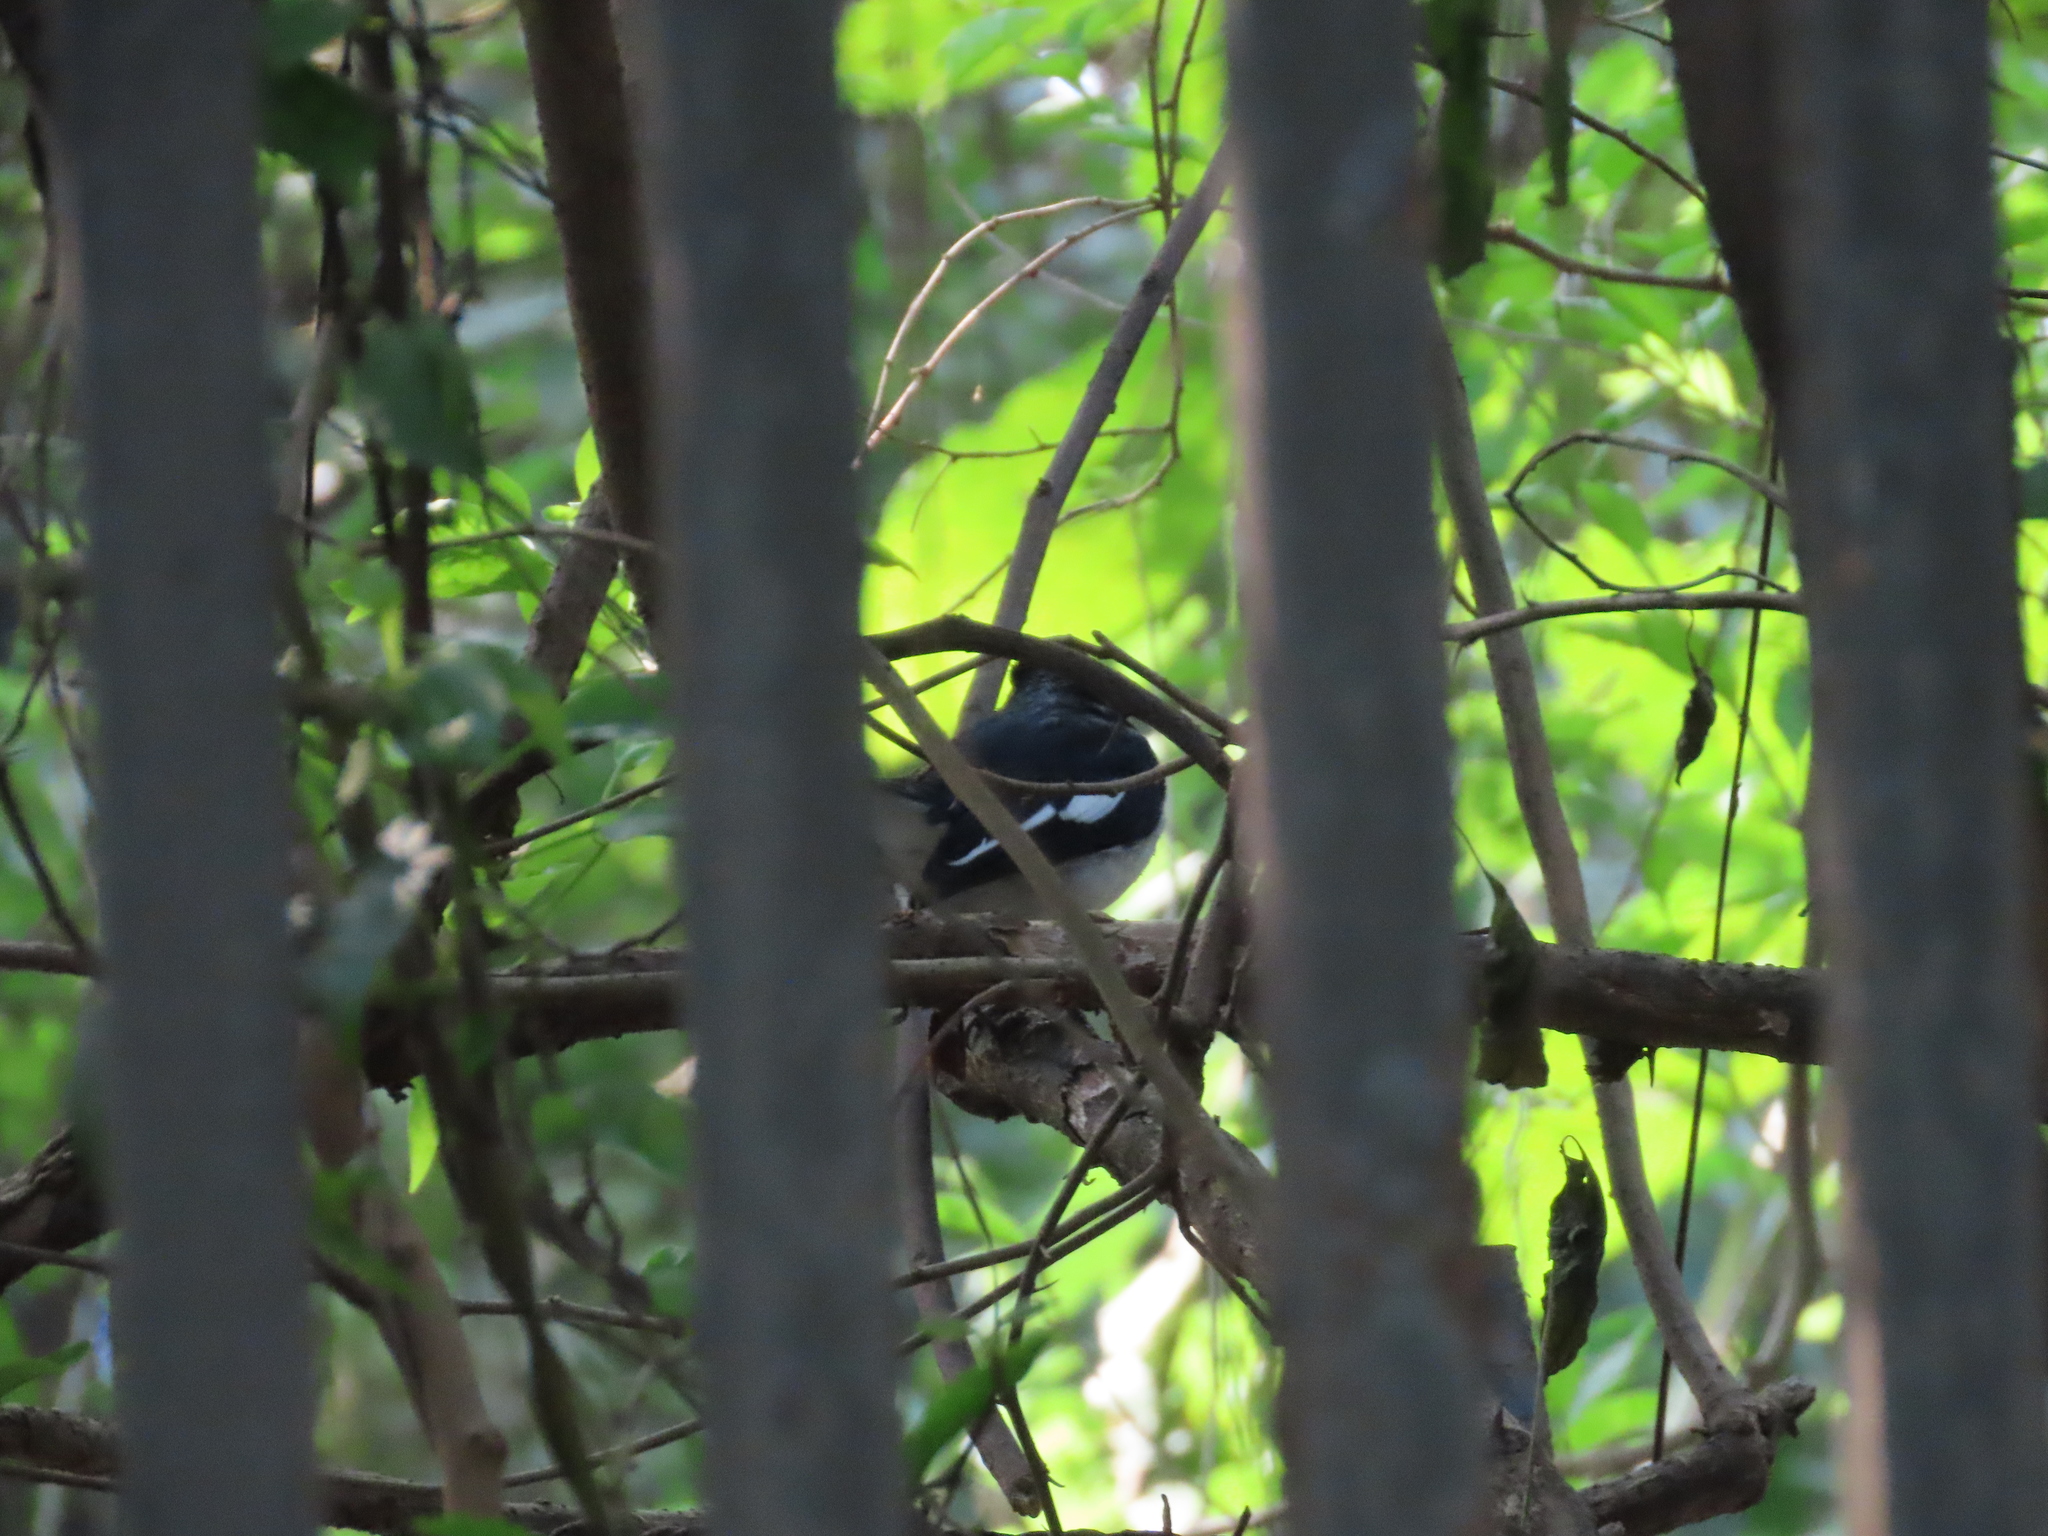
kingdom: Animalia
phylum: Chordata
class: Aves
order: Passeriformes
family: Muscicapidae
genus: Copsychus
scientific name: Copsychus saularis
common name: Oriental magpie-robin
